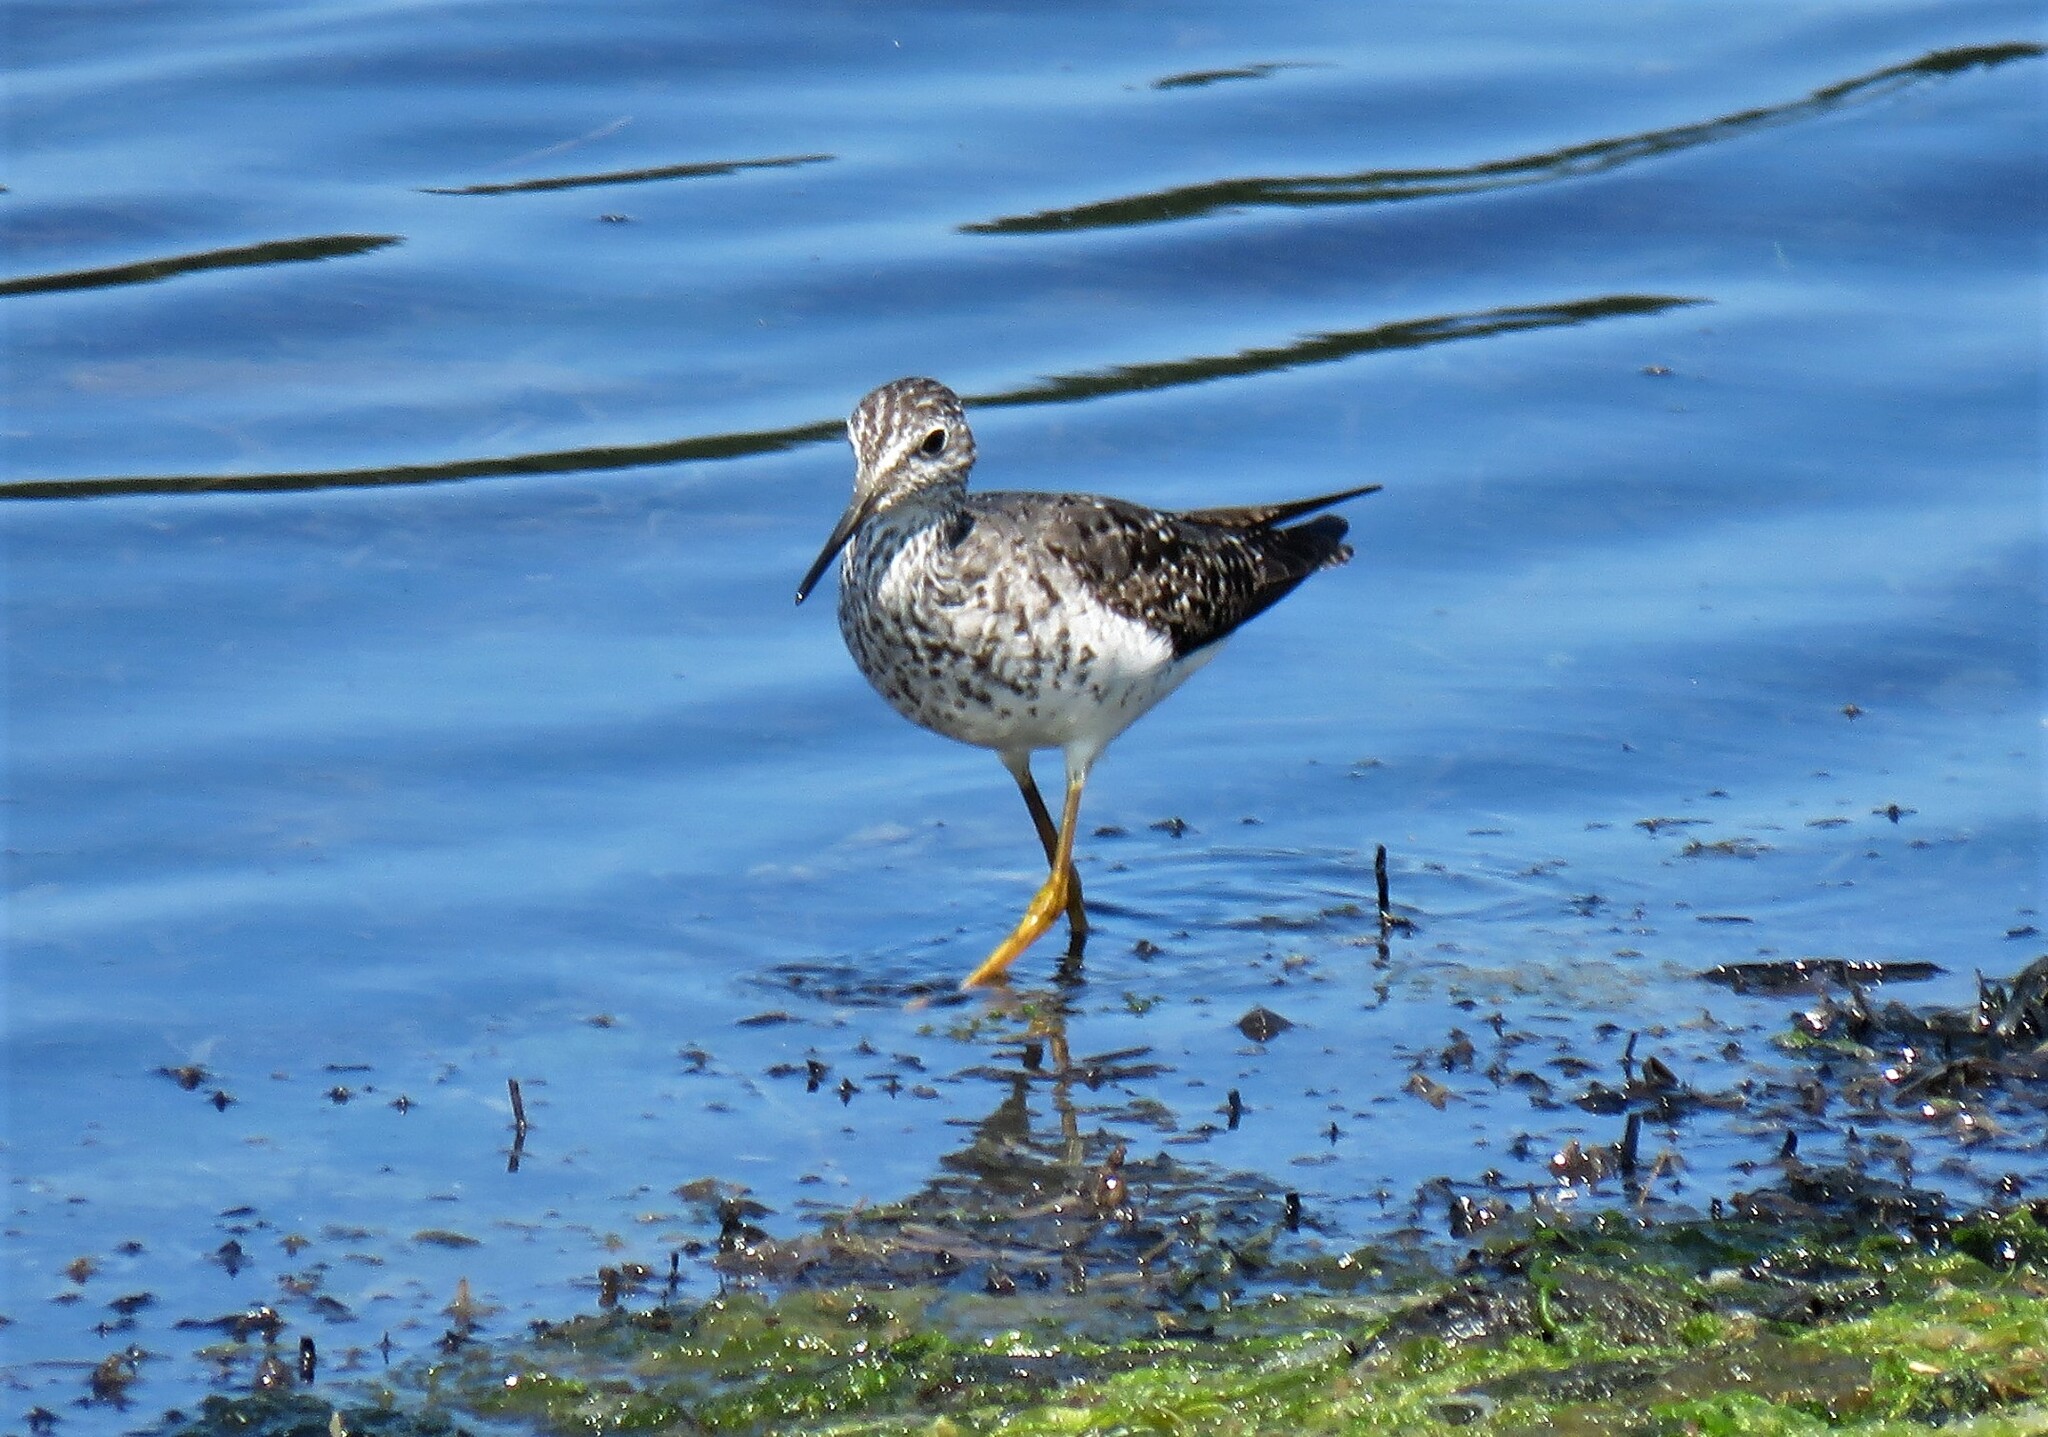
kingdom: Animalia
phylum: Chordata
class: Aves
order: Charadriiformes
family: Scolopacidae
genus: Tringa
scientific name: Tringa flavipes
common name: Lesser yellowlegs
